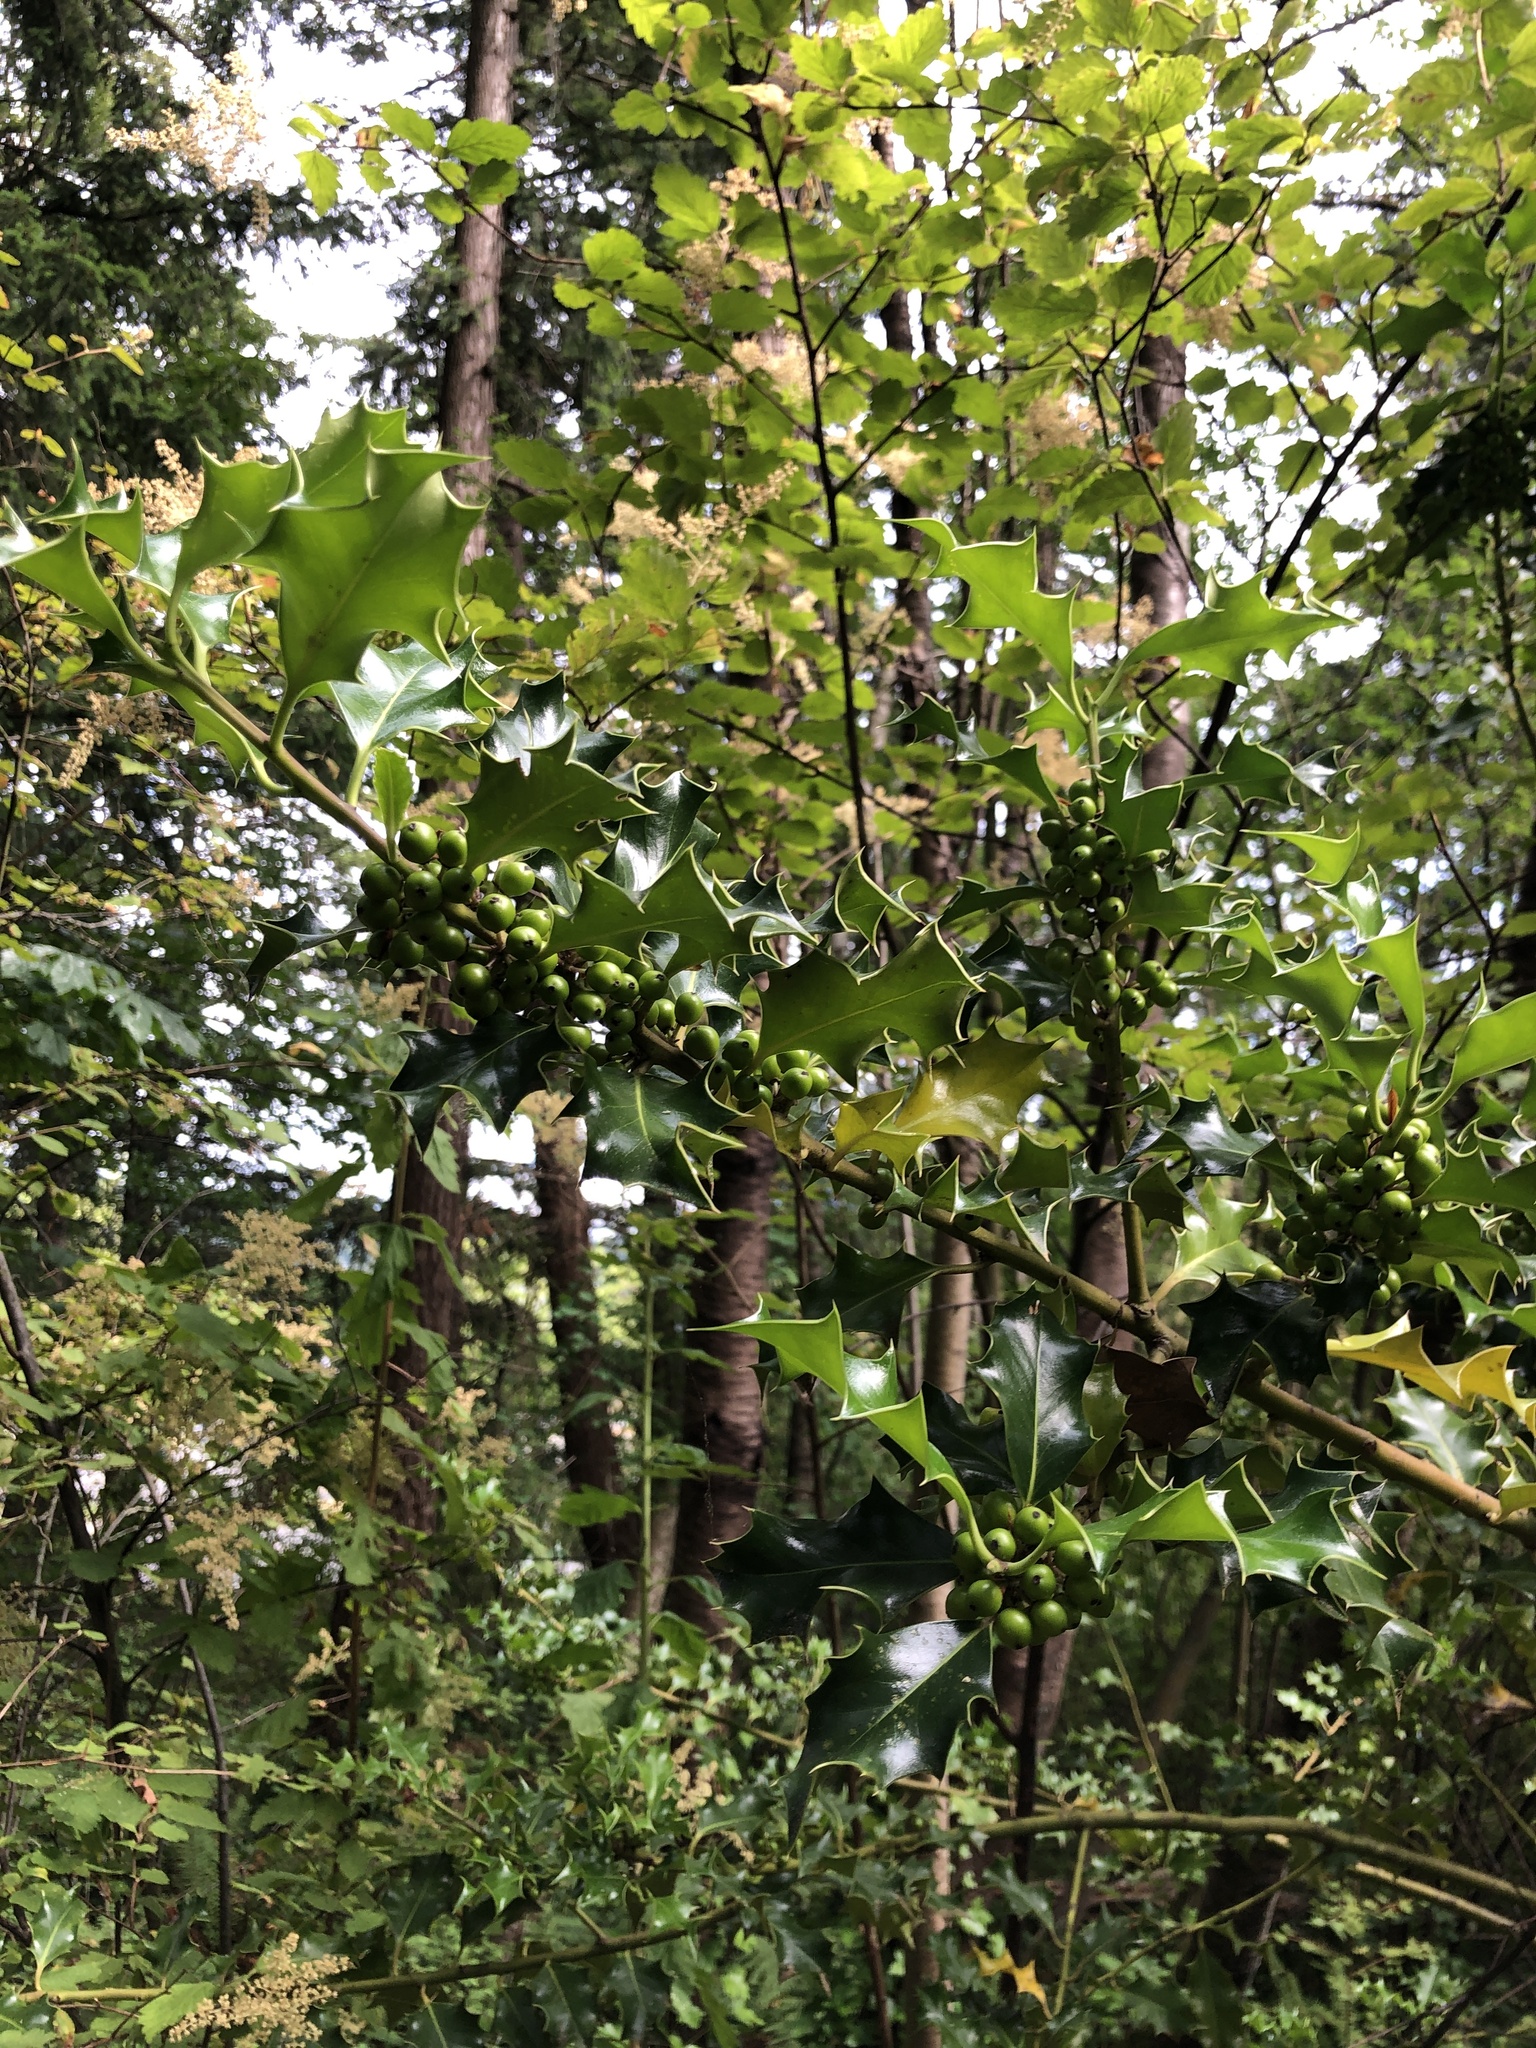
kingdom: Plantae
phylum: Tracheophyta
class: Magnoliopsida
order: Aquifoliales
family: Aquifoliaceae
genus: Ilex
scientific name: Ilex aquifolium
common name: English holly
